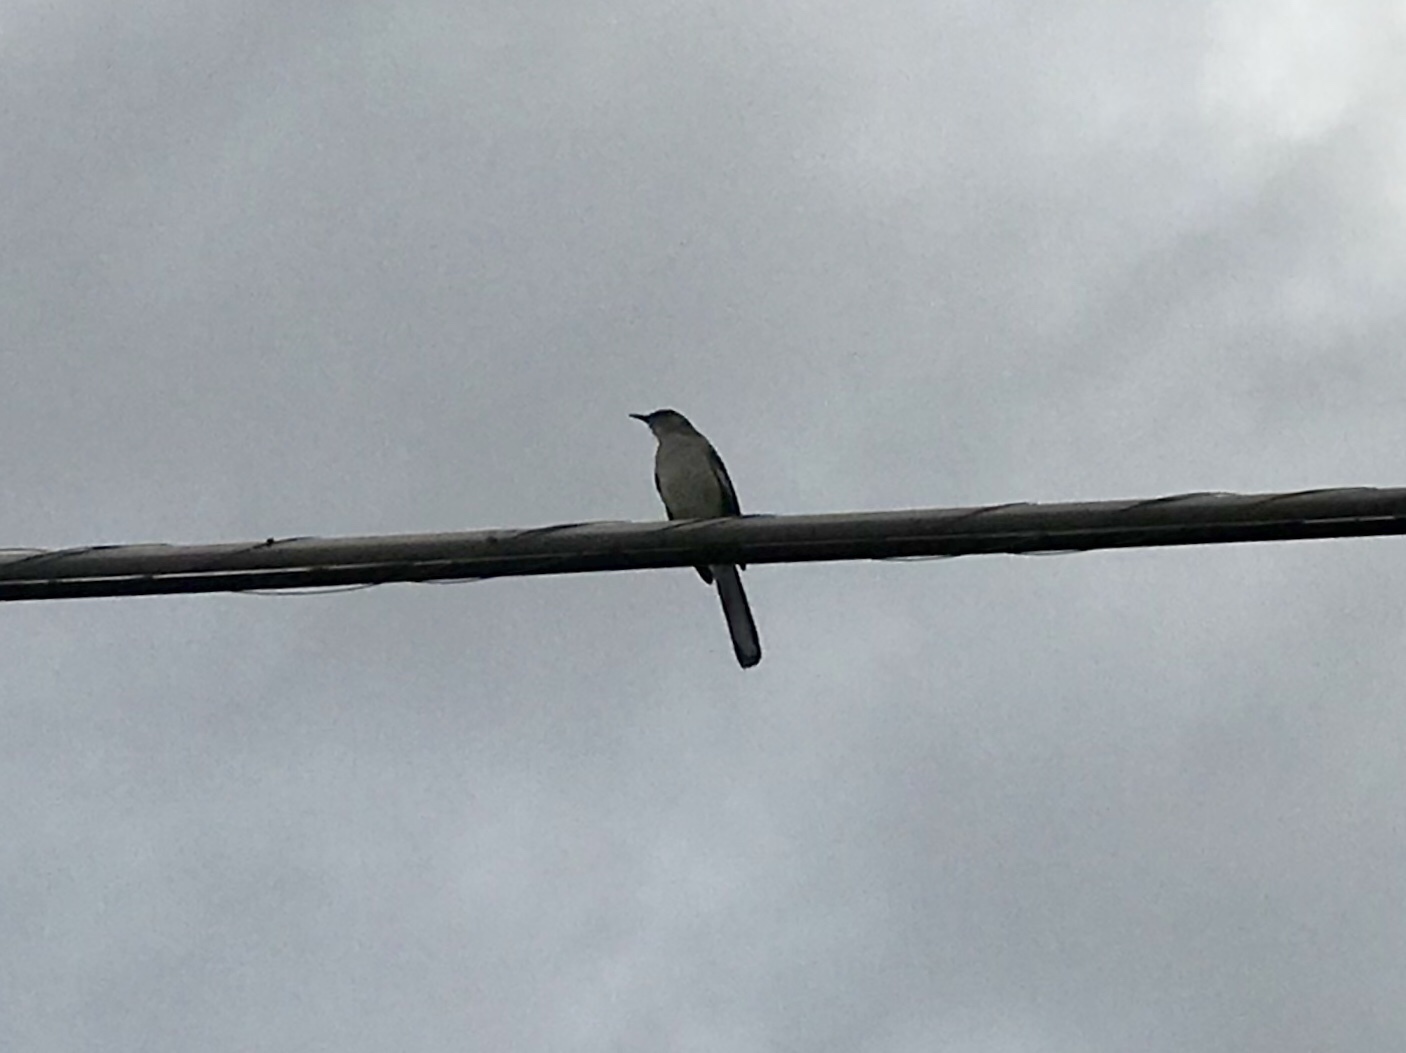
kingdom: Animalia
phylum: Chordata
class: Aves
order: Passeriformes
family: Mimidae
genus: Mimus
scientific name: Mimus polyglottos
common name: Northern mockingbird
